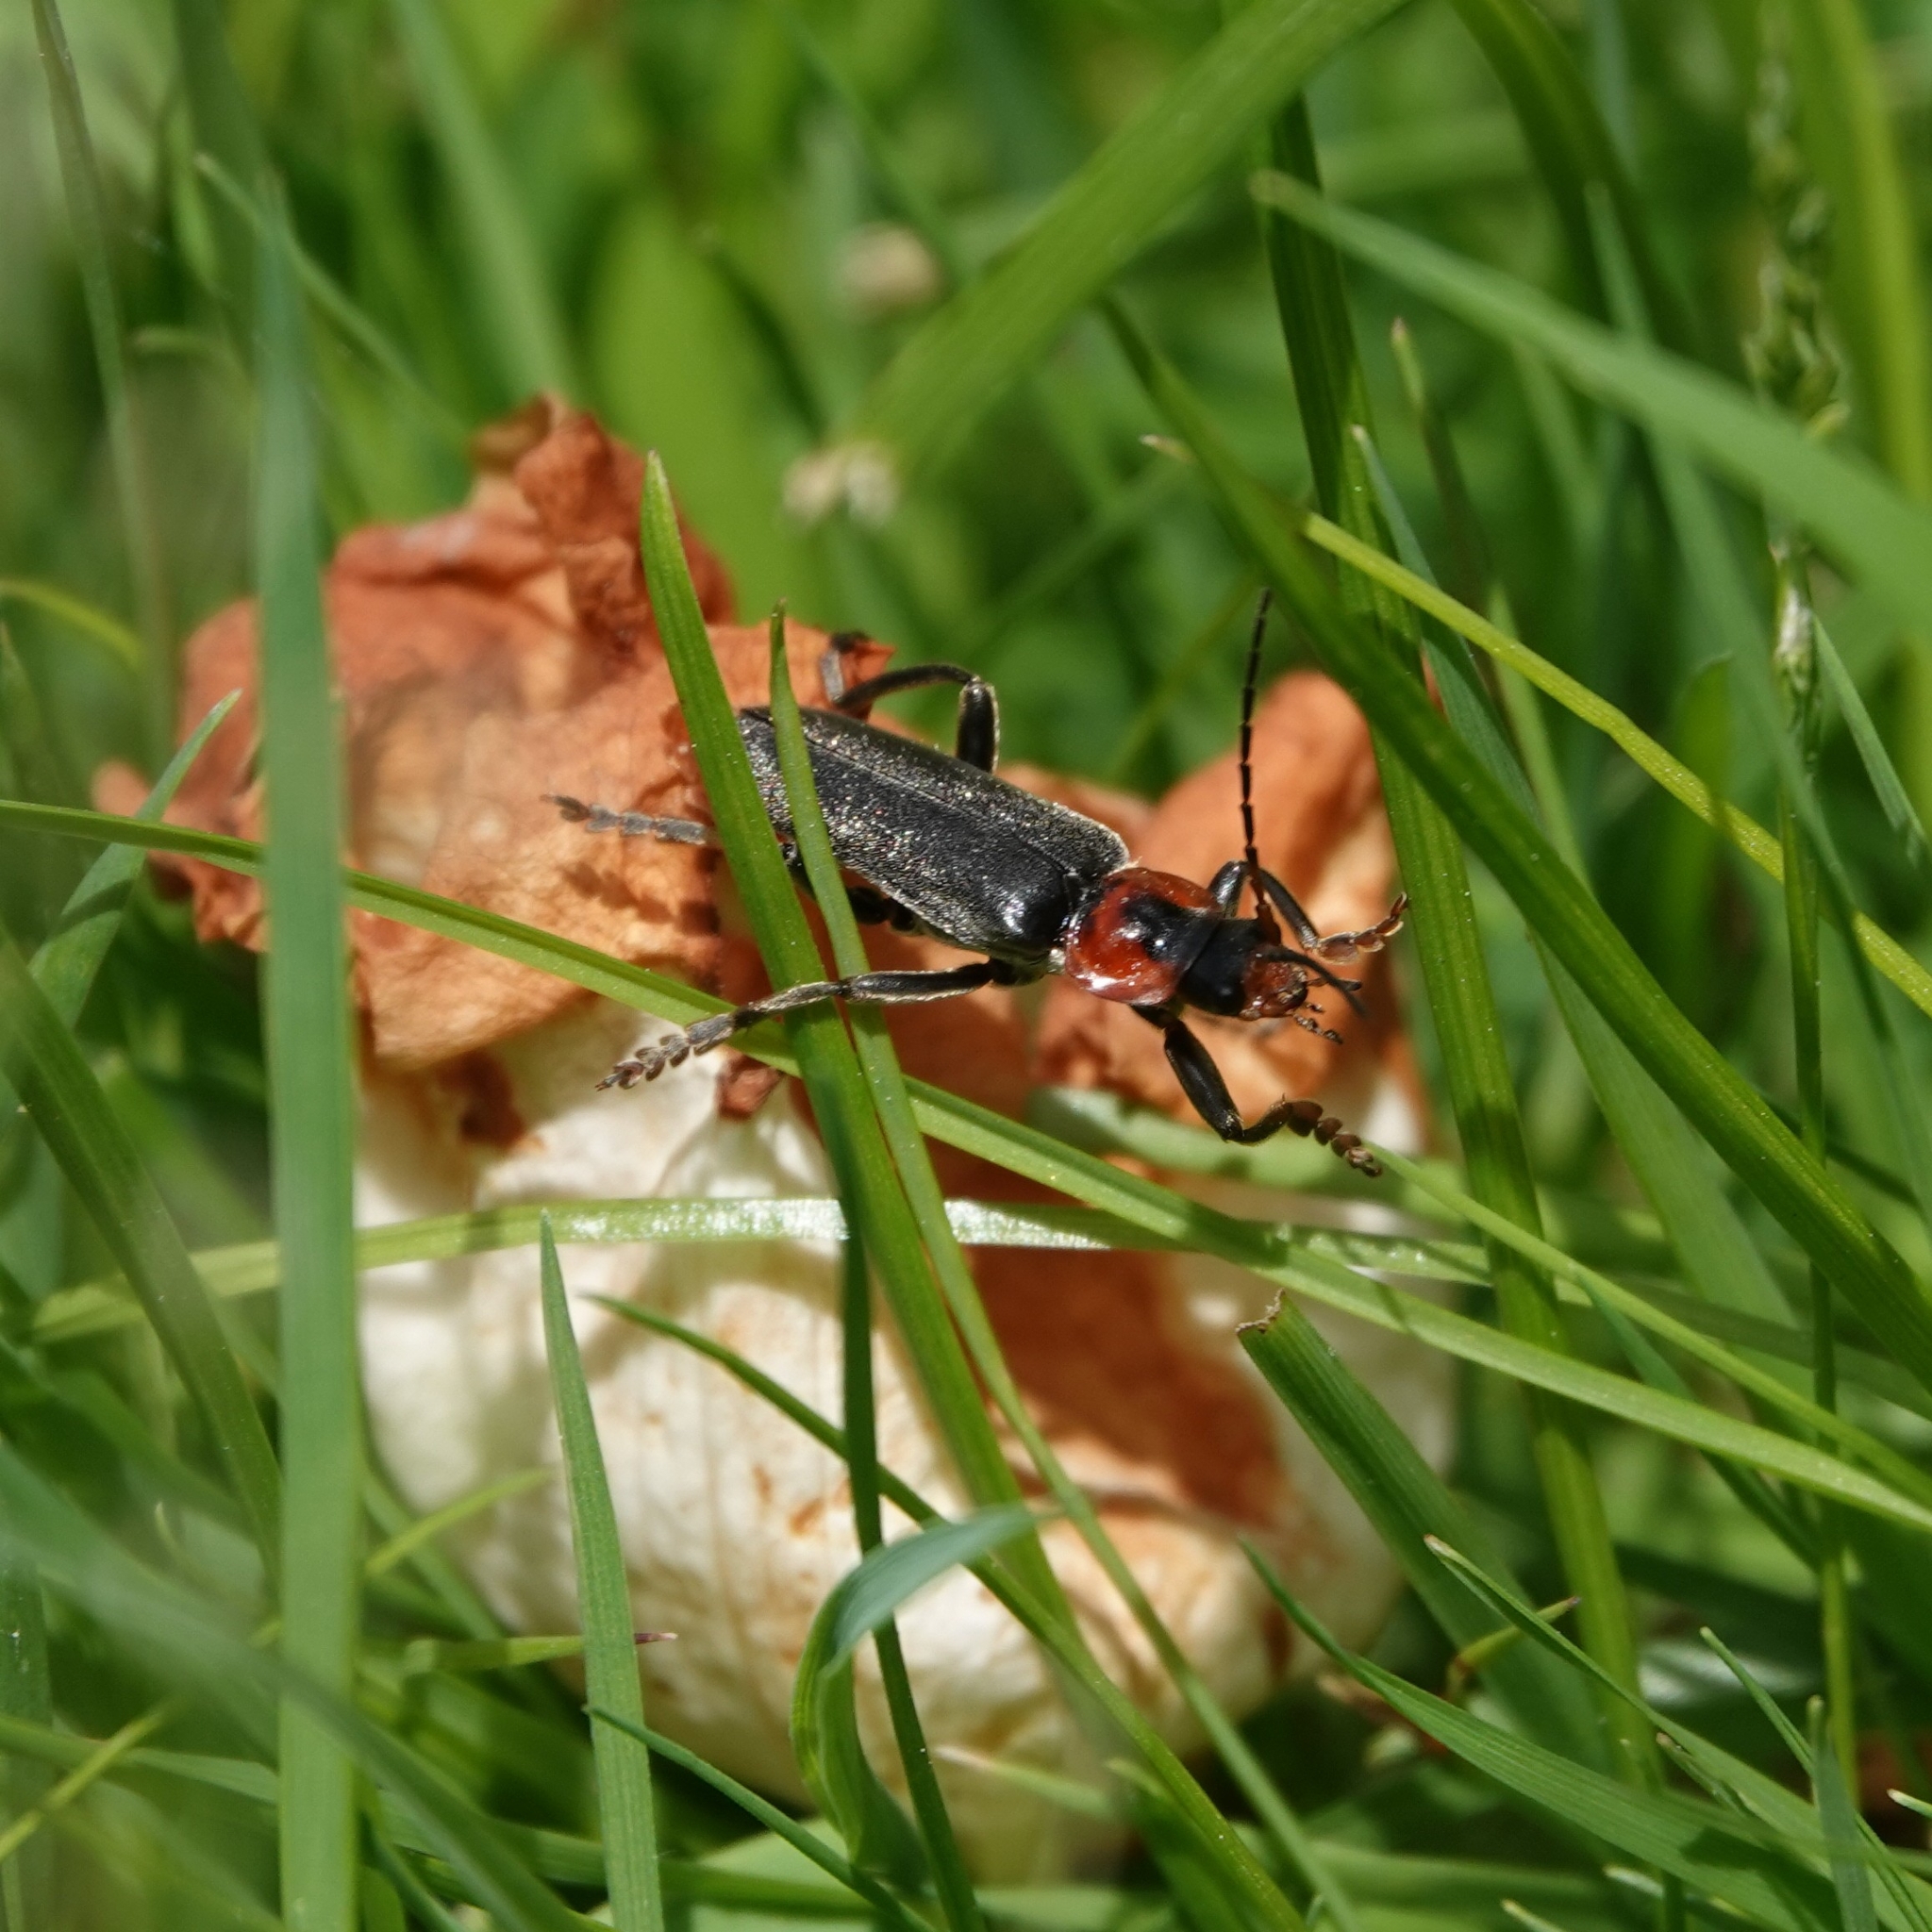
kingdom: Animalia
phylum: Arthropoda
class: Insecta
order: Coleoptera
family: Cantharidae
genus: Cantharis
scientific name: Cantharis fusca
